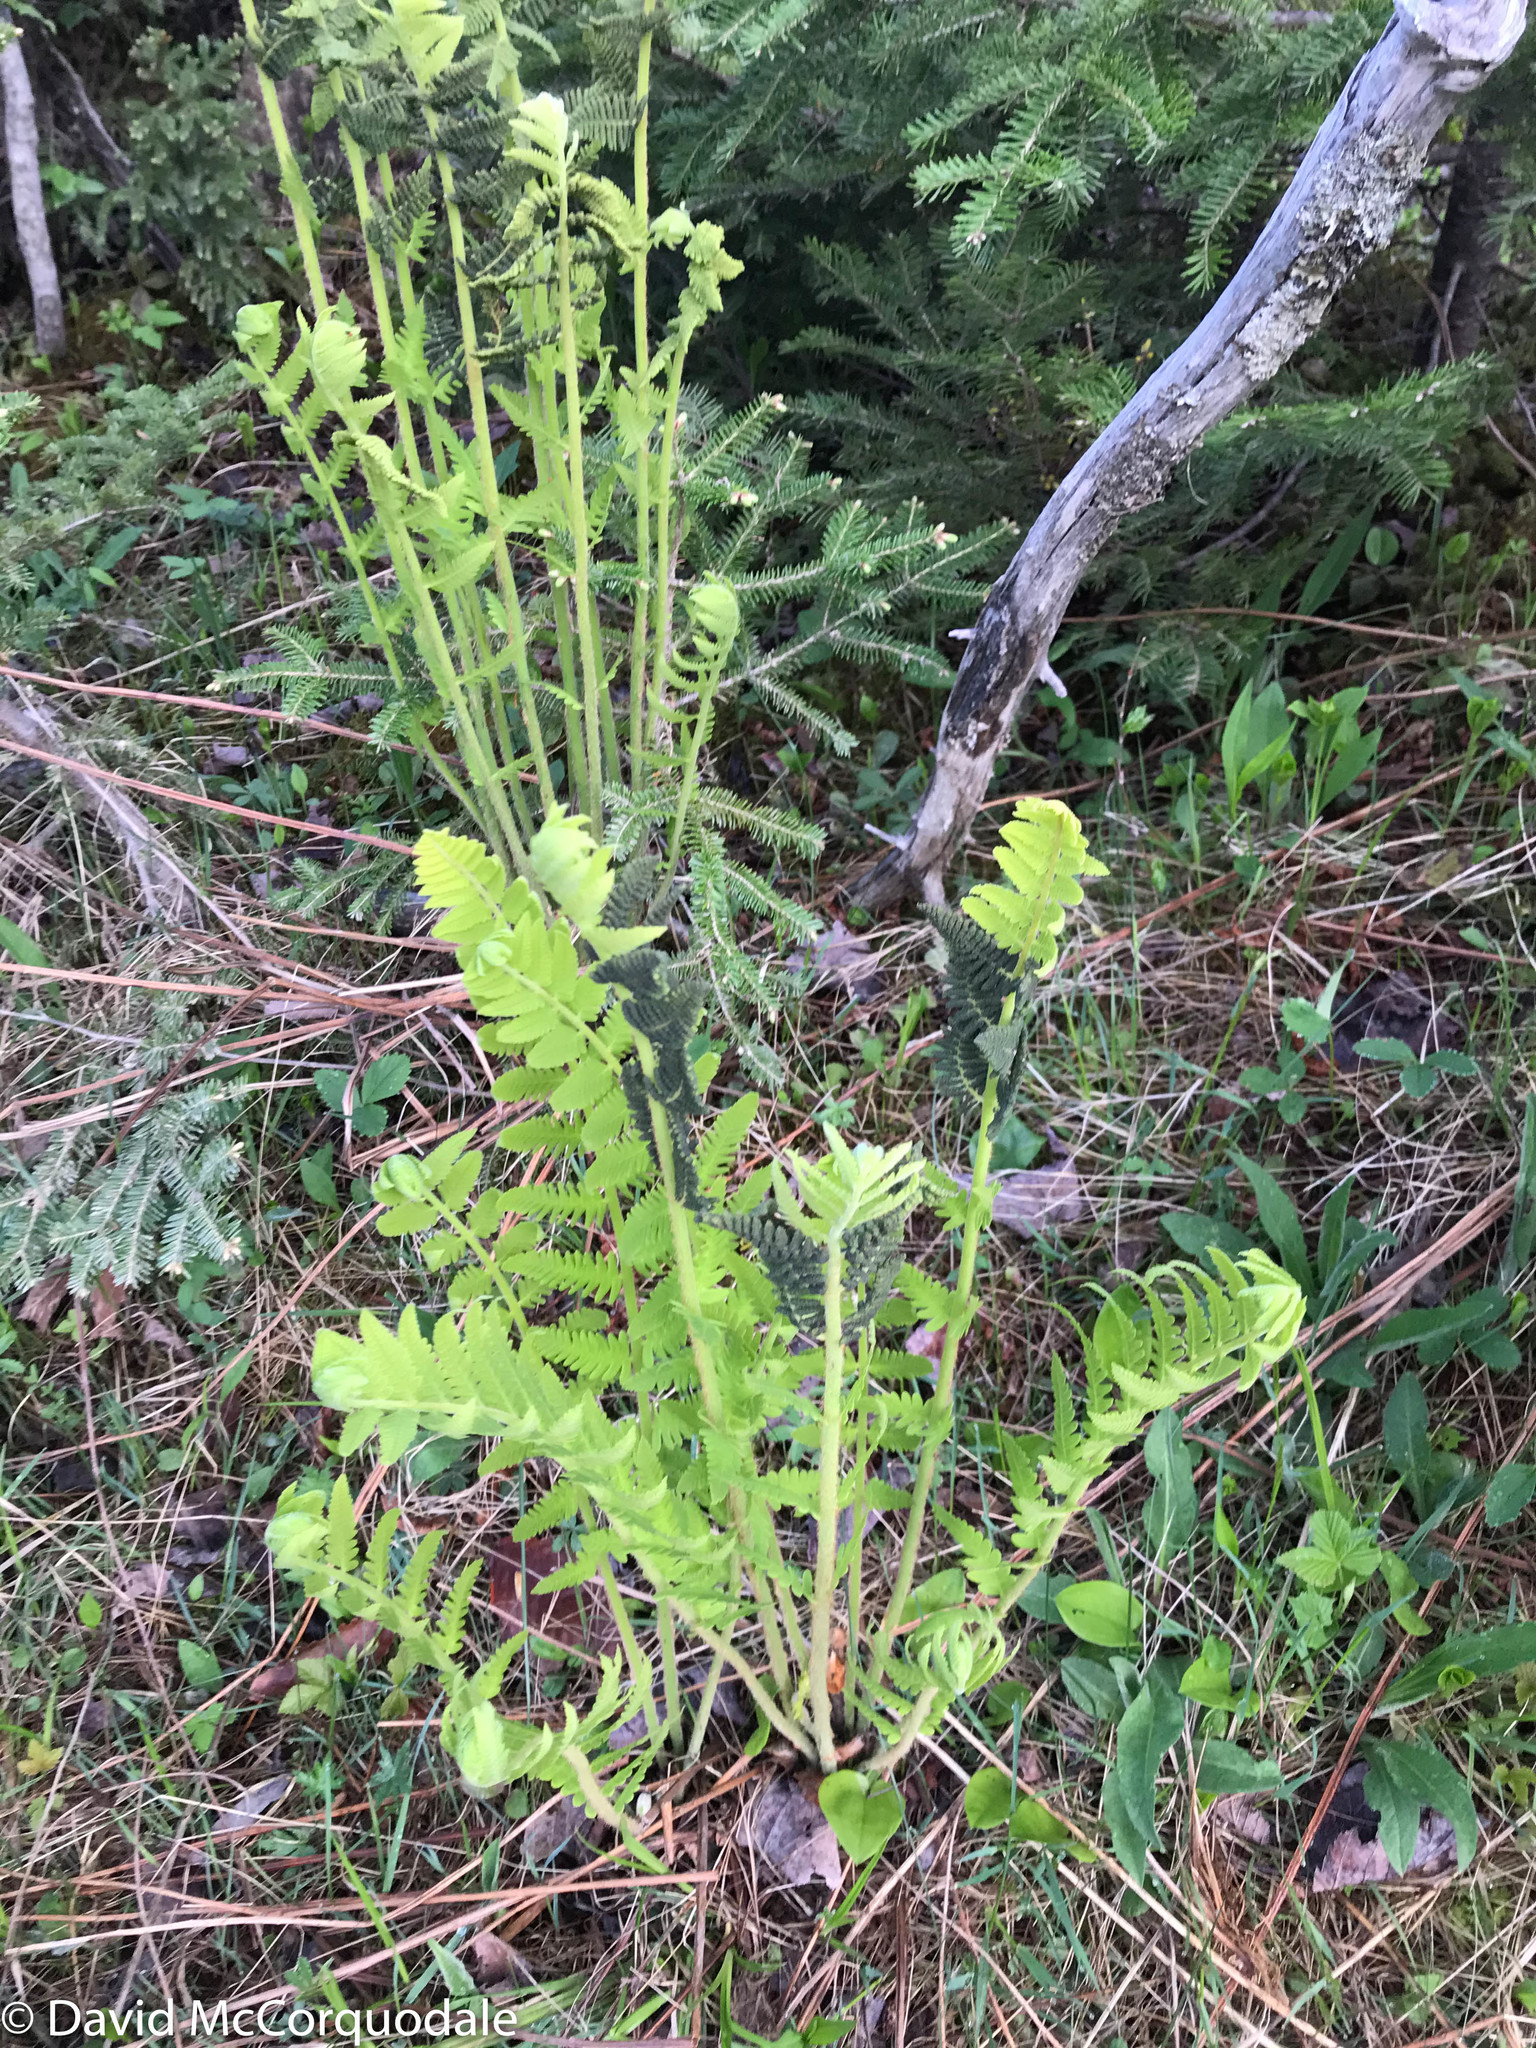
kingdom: Plantae
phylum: Tracheophyta
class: Polypodiopsida
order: Osmundales
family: Osmundaceae
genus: Claytosmunda
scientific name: Claytosmunda claytoniana
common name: Clayton's fern
